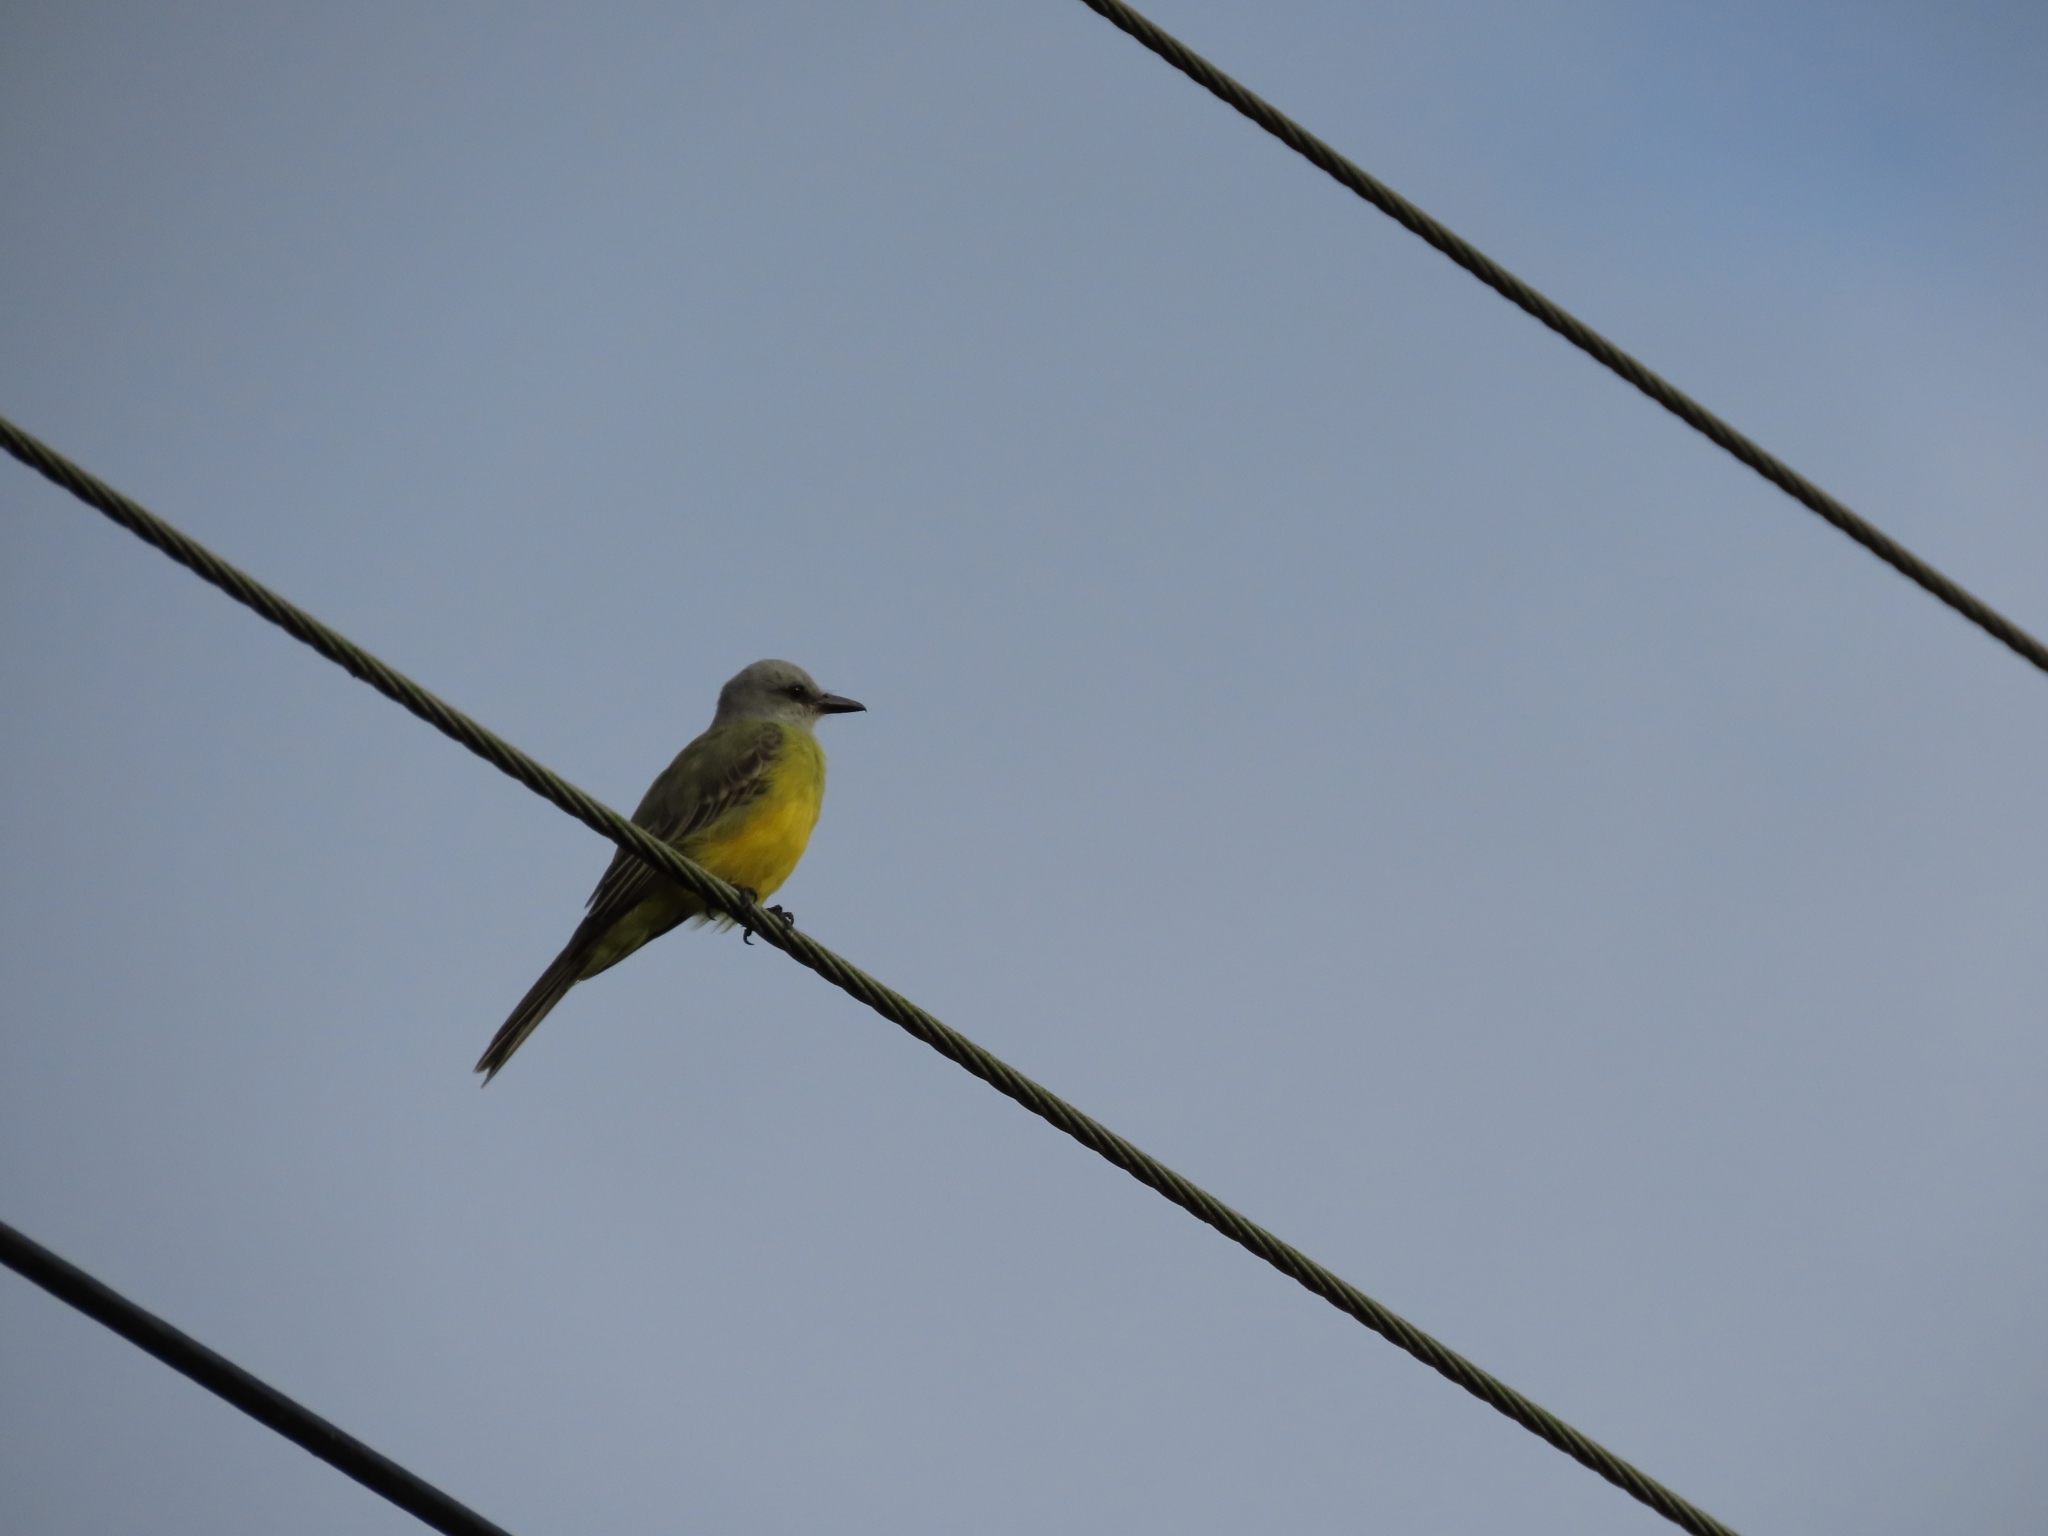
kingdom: Animalia
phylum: Chordata
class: Aves
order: Passeriformes
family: Tyrannidae
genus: Tyrannus
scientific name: Tyrannus melancholicus
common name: Tropical kingbird
